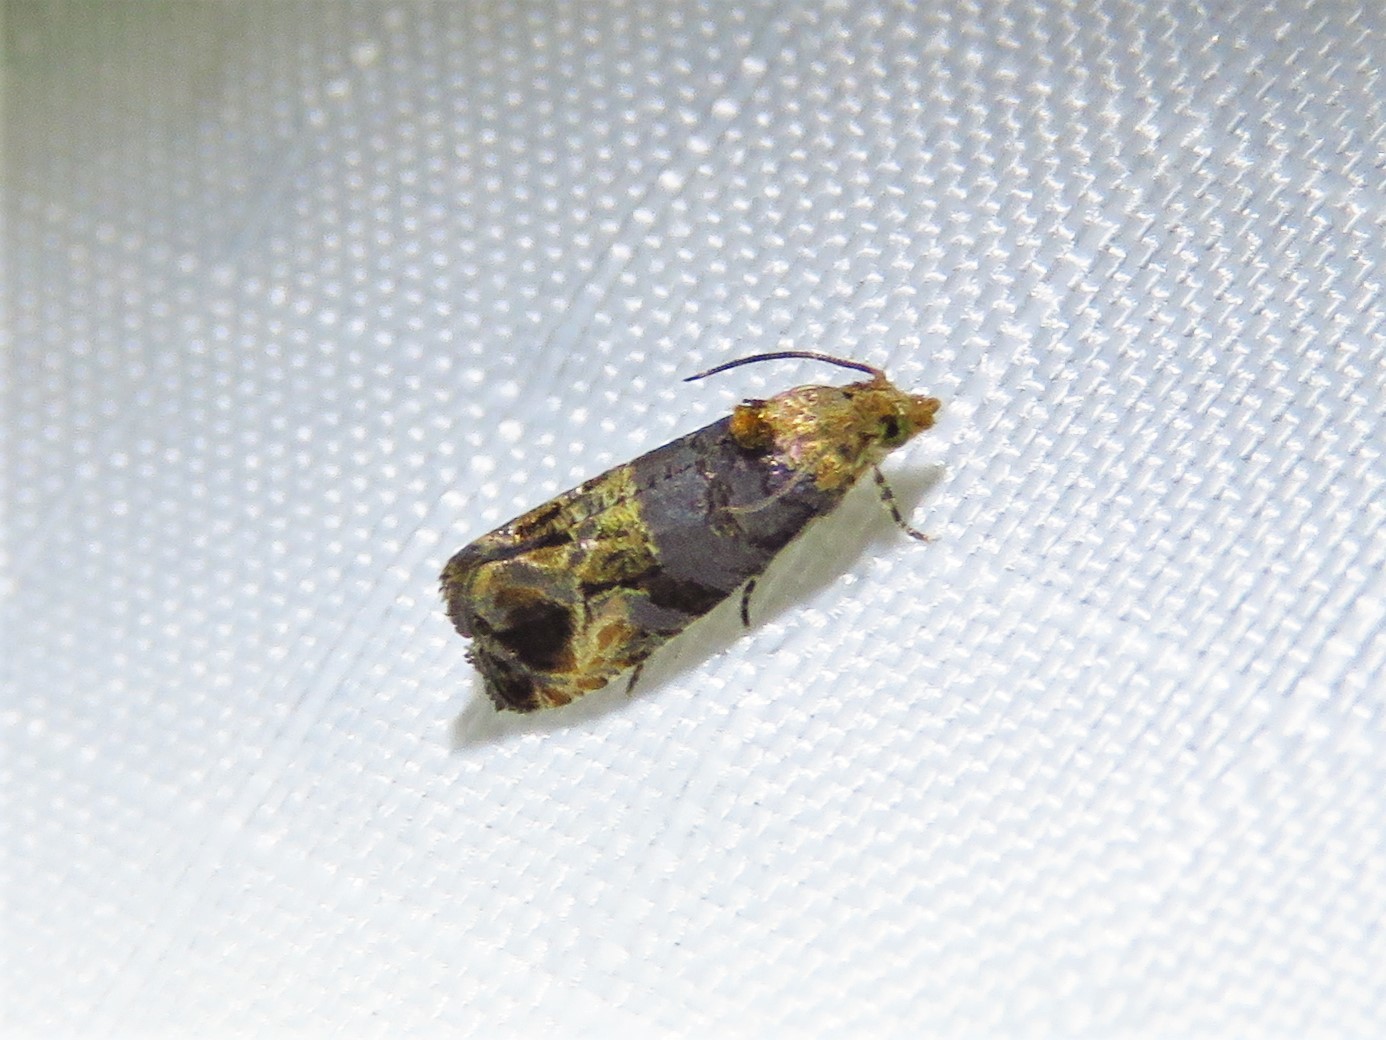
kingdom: Animalia
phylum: Arthropoda
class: Insecta
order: Lepidoptera
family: Tortricidae
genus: Paralobesia
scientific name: Paralobesia viteana
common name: Grape berry moth
